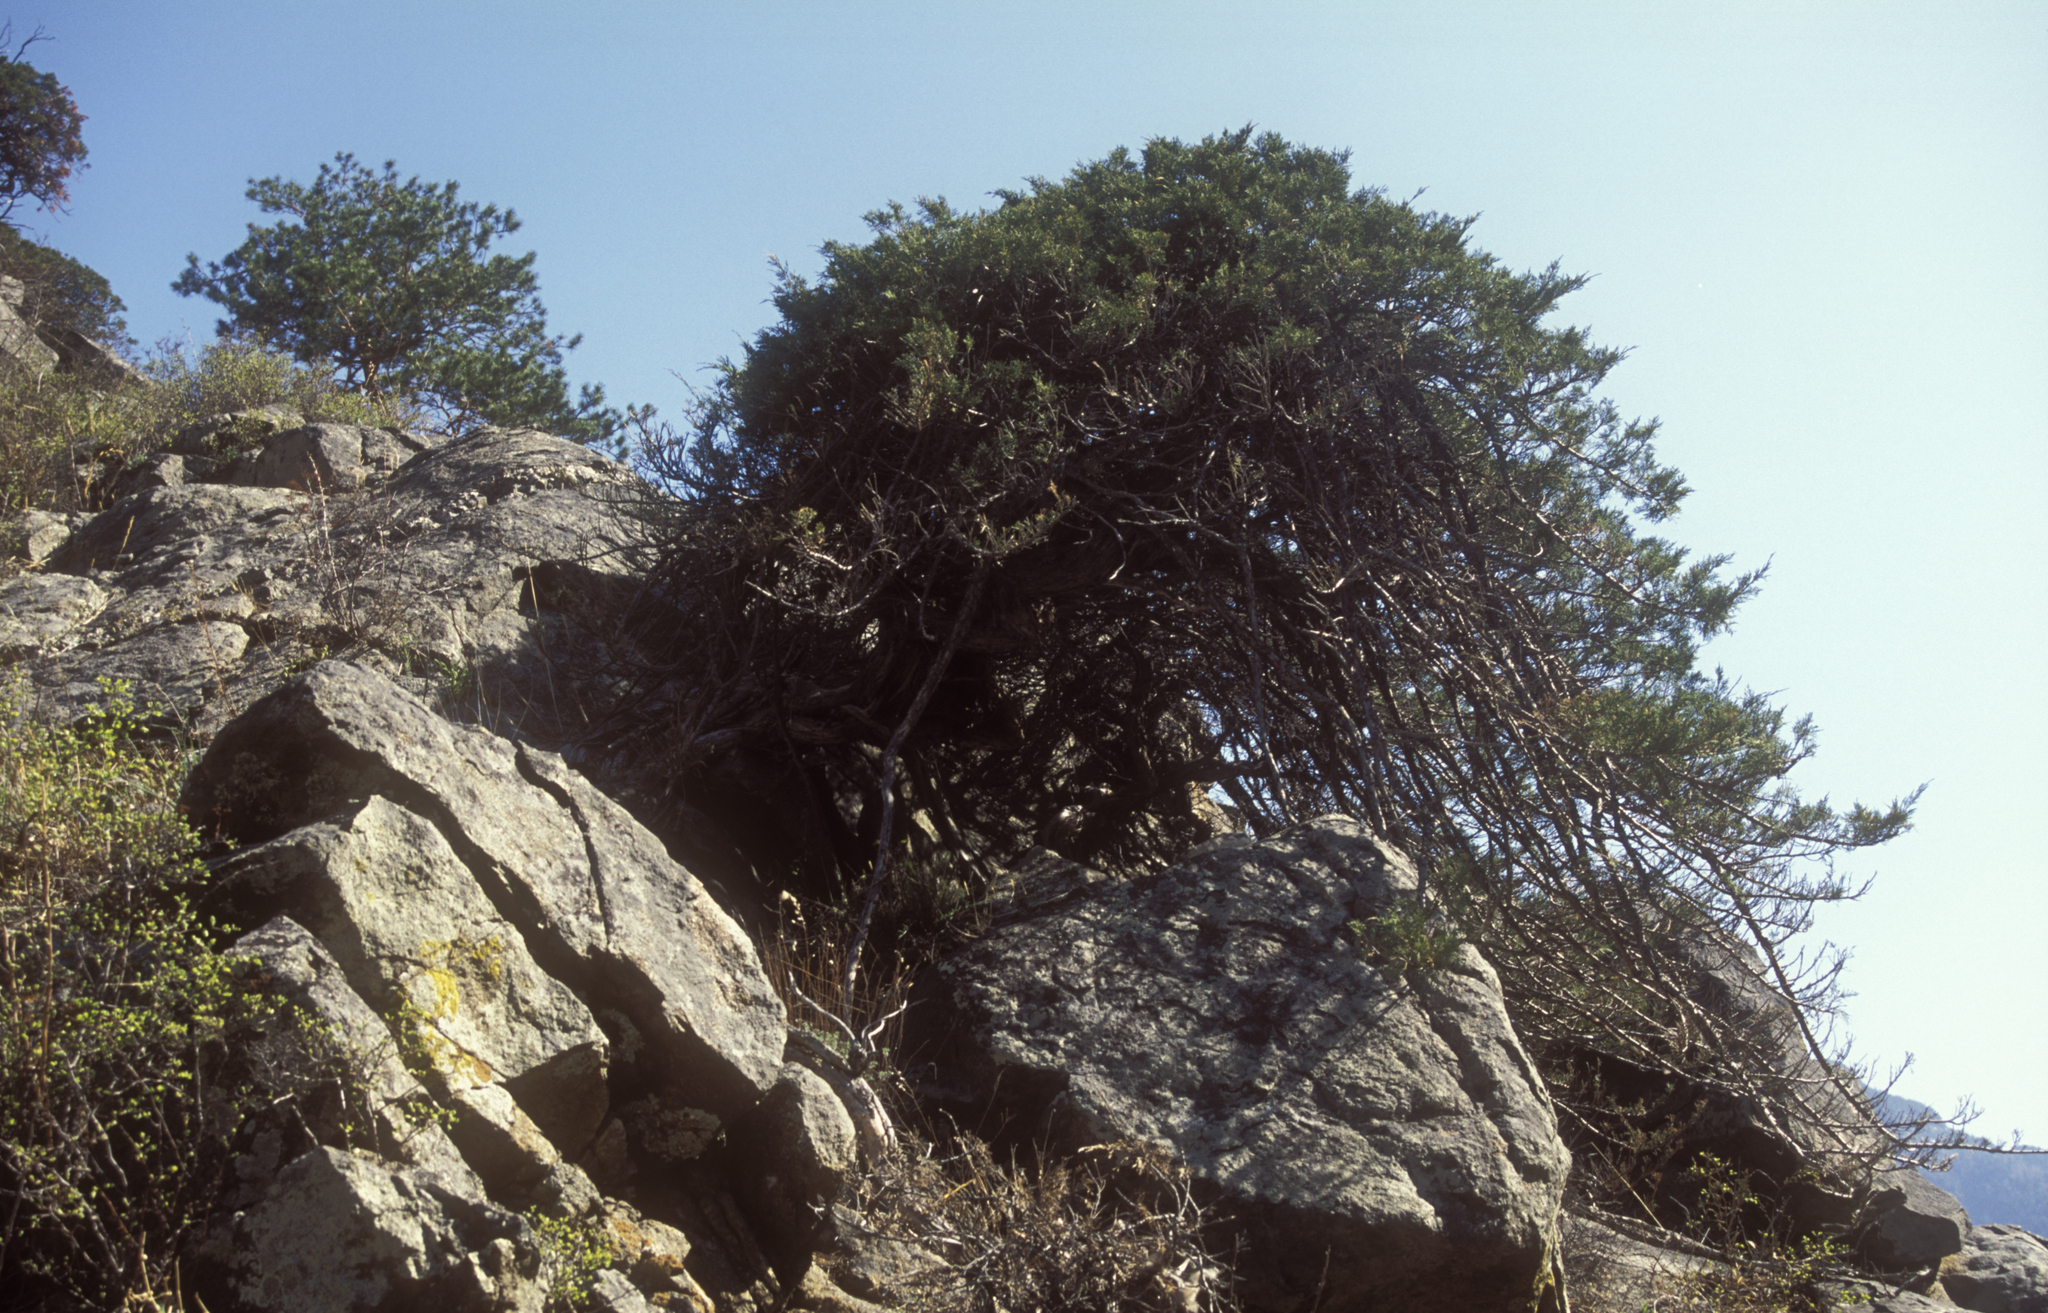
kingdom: Plantae
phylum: Tracheophyta
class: Pinopsida
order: Pinales
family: Cupressaceae
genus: Juniperus
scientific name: Juniperus pseudosabina
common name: Turkestan juniper
